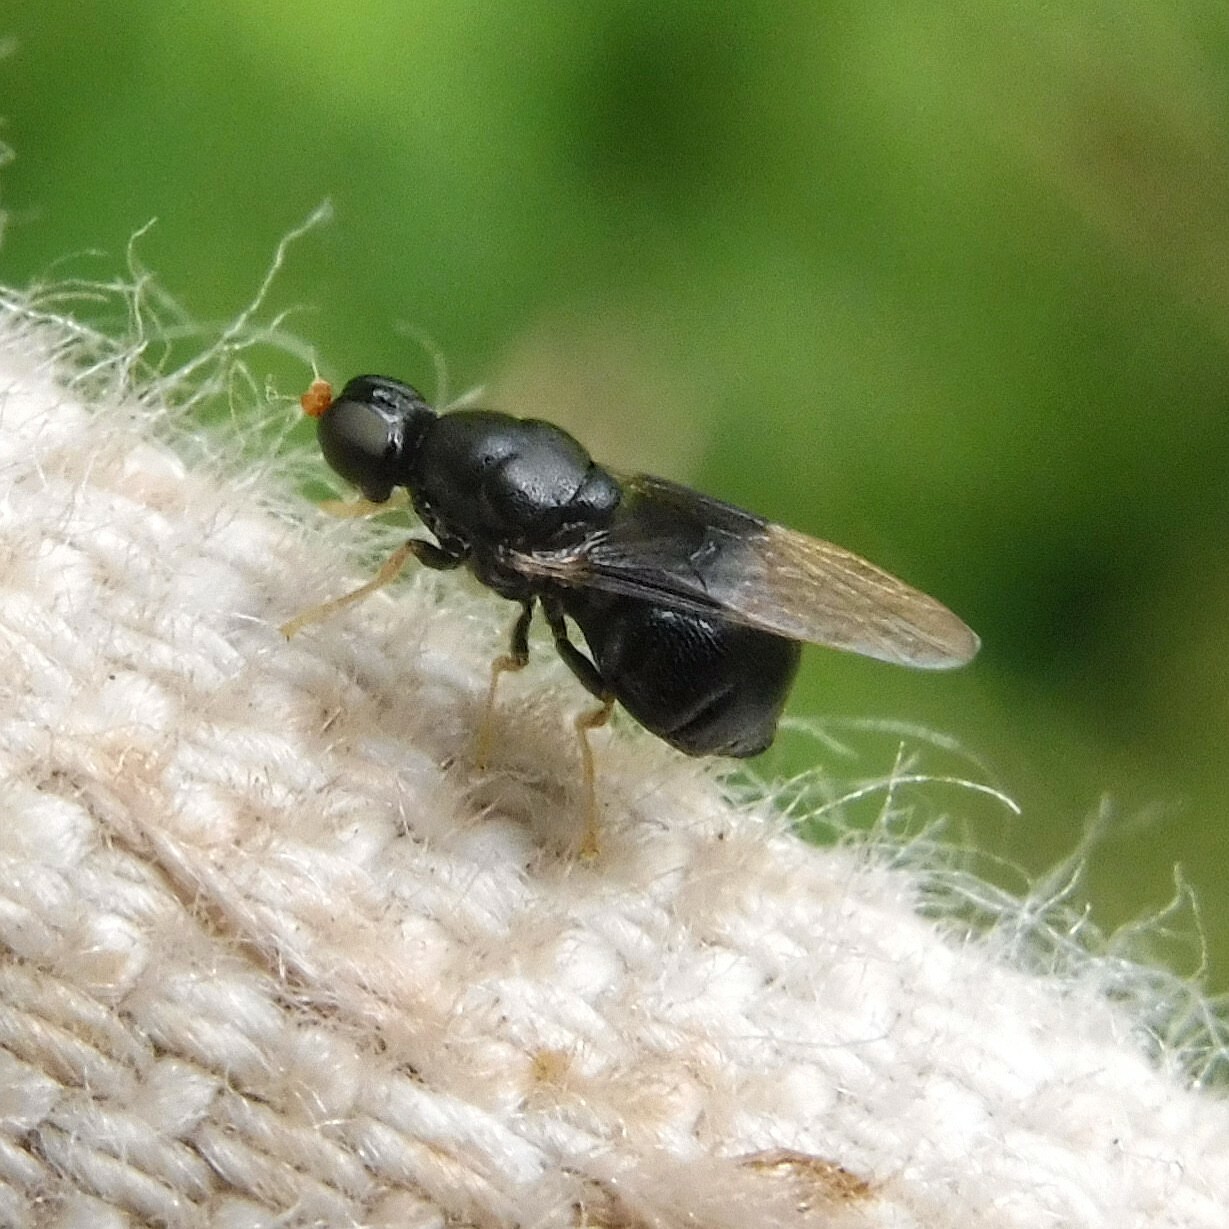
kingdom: Animalia
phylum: Arthropoda
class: Insecta
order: Diptera
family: Stratiomyidae
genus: Pachygaster
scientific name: Pachygaster atra
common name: Dark-winged black
